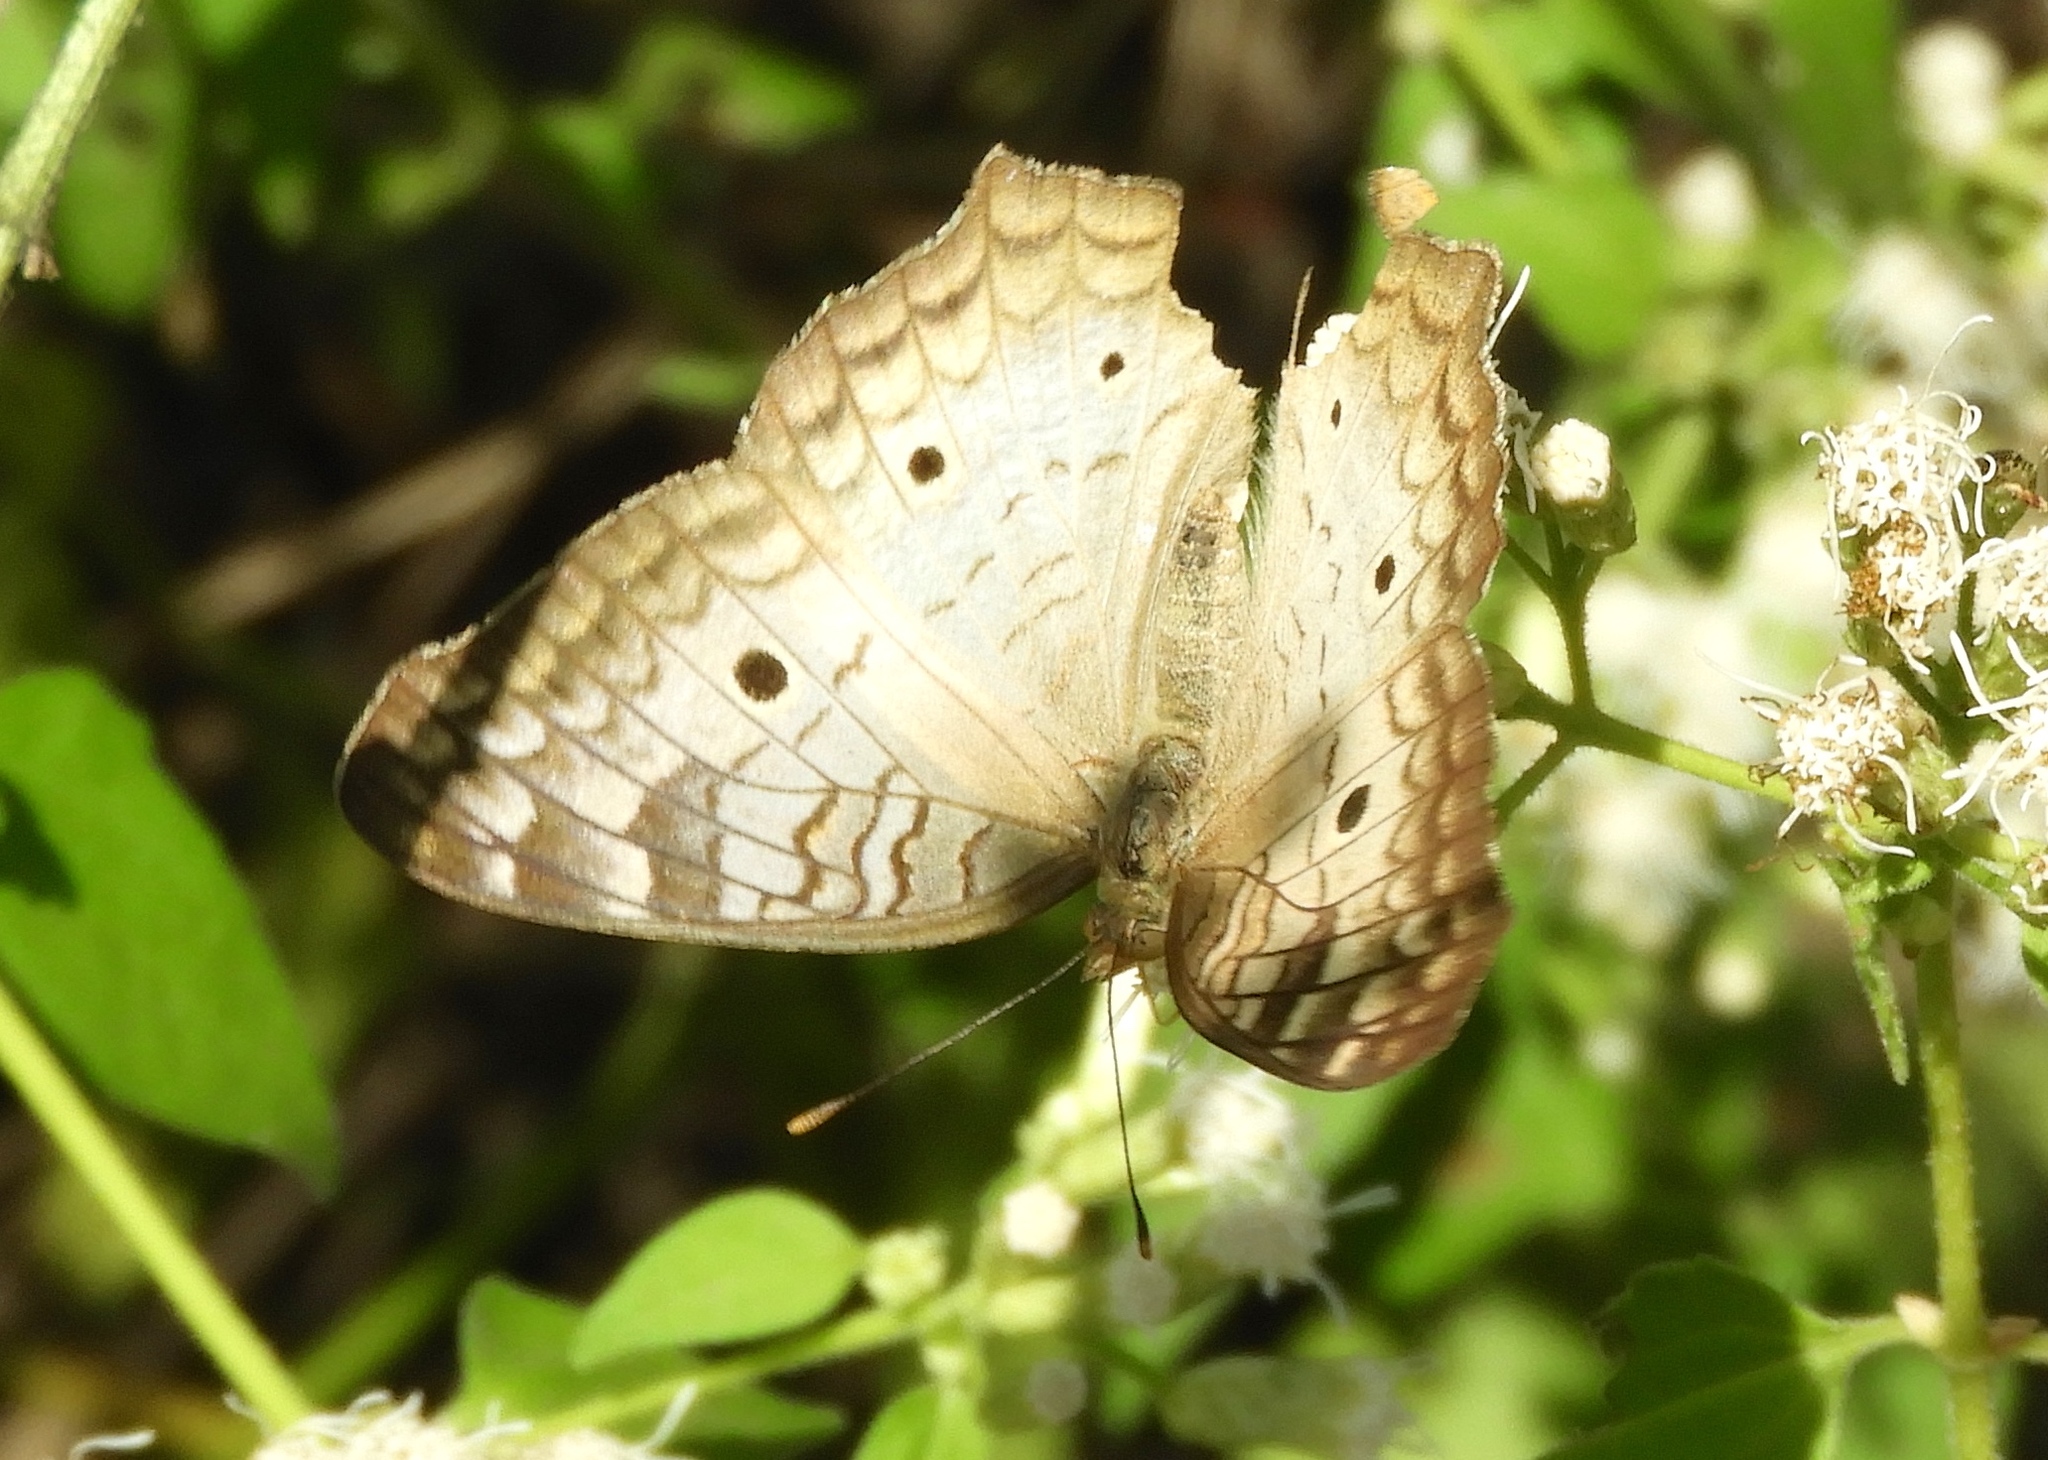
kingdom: Animalia
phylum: Arthropoda
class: Insecta
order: Lepidoptera
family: Nymphalidae
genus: Anartia
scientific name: Anartia jatrophae
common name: White peacock
